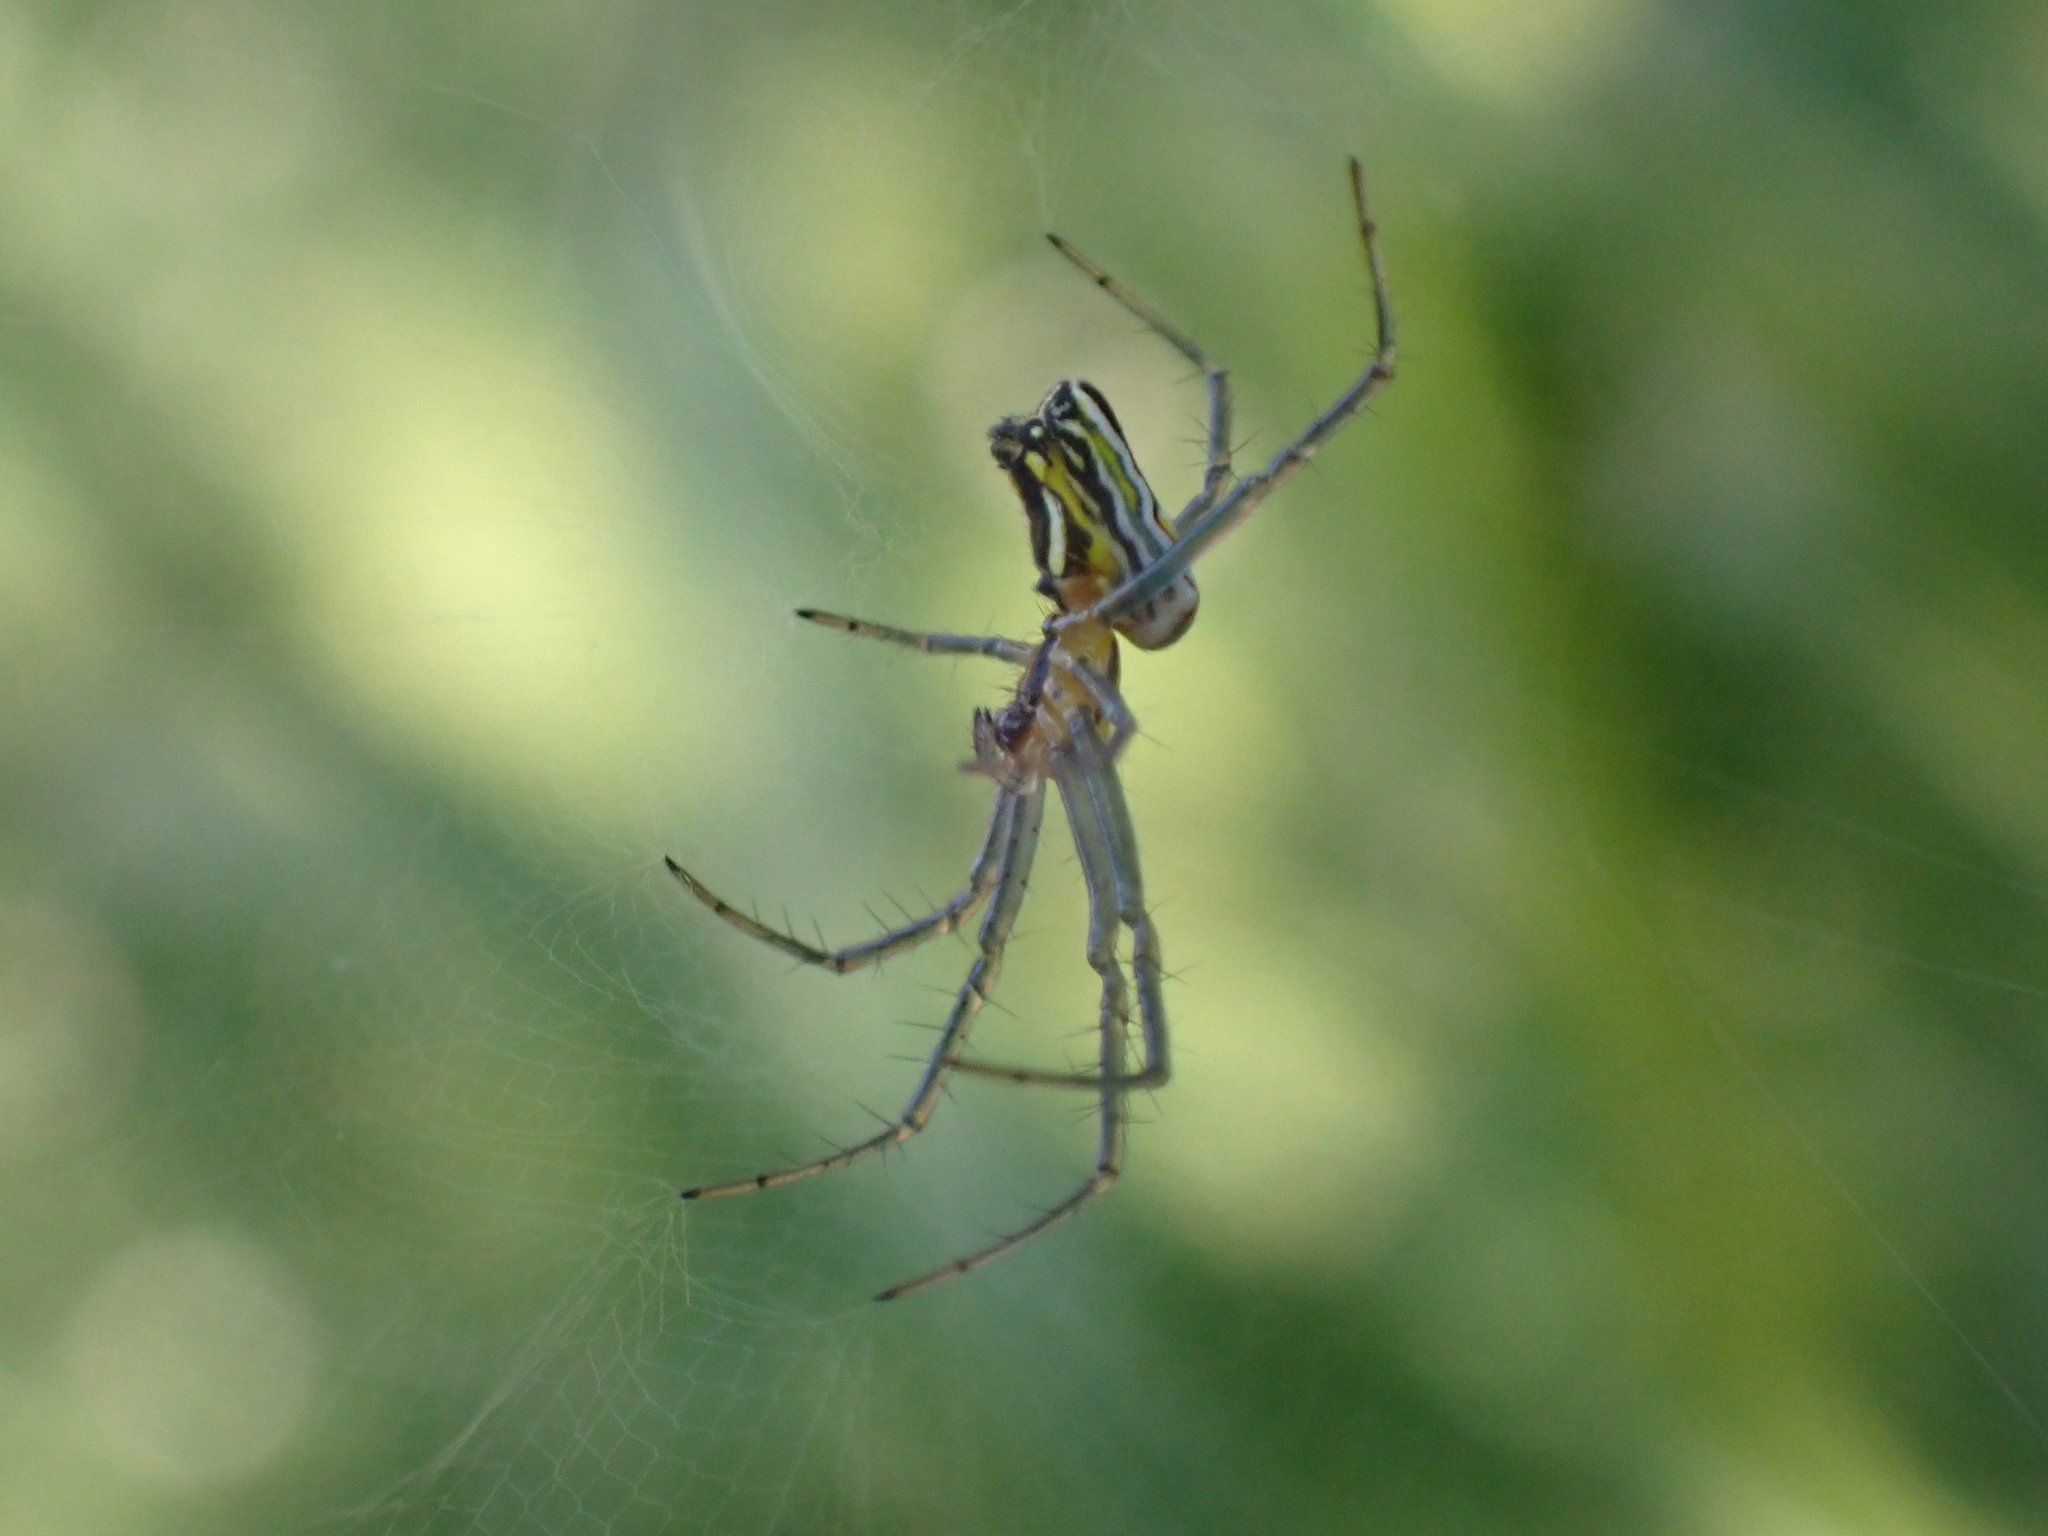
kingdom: Animalia
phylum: Arthropoda
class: Arachnida
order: Araneae
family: Araneidae
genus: Mecynogea
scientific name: Mecynogea lemniscata
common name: Orb weavers
